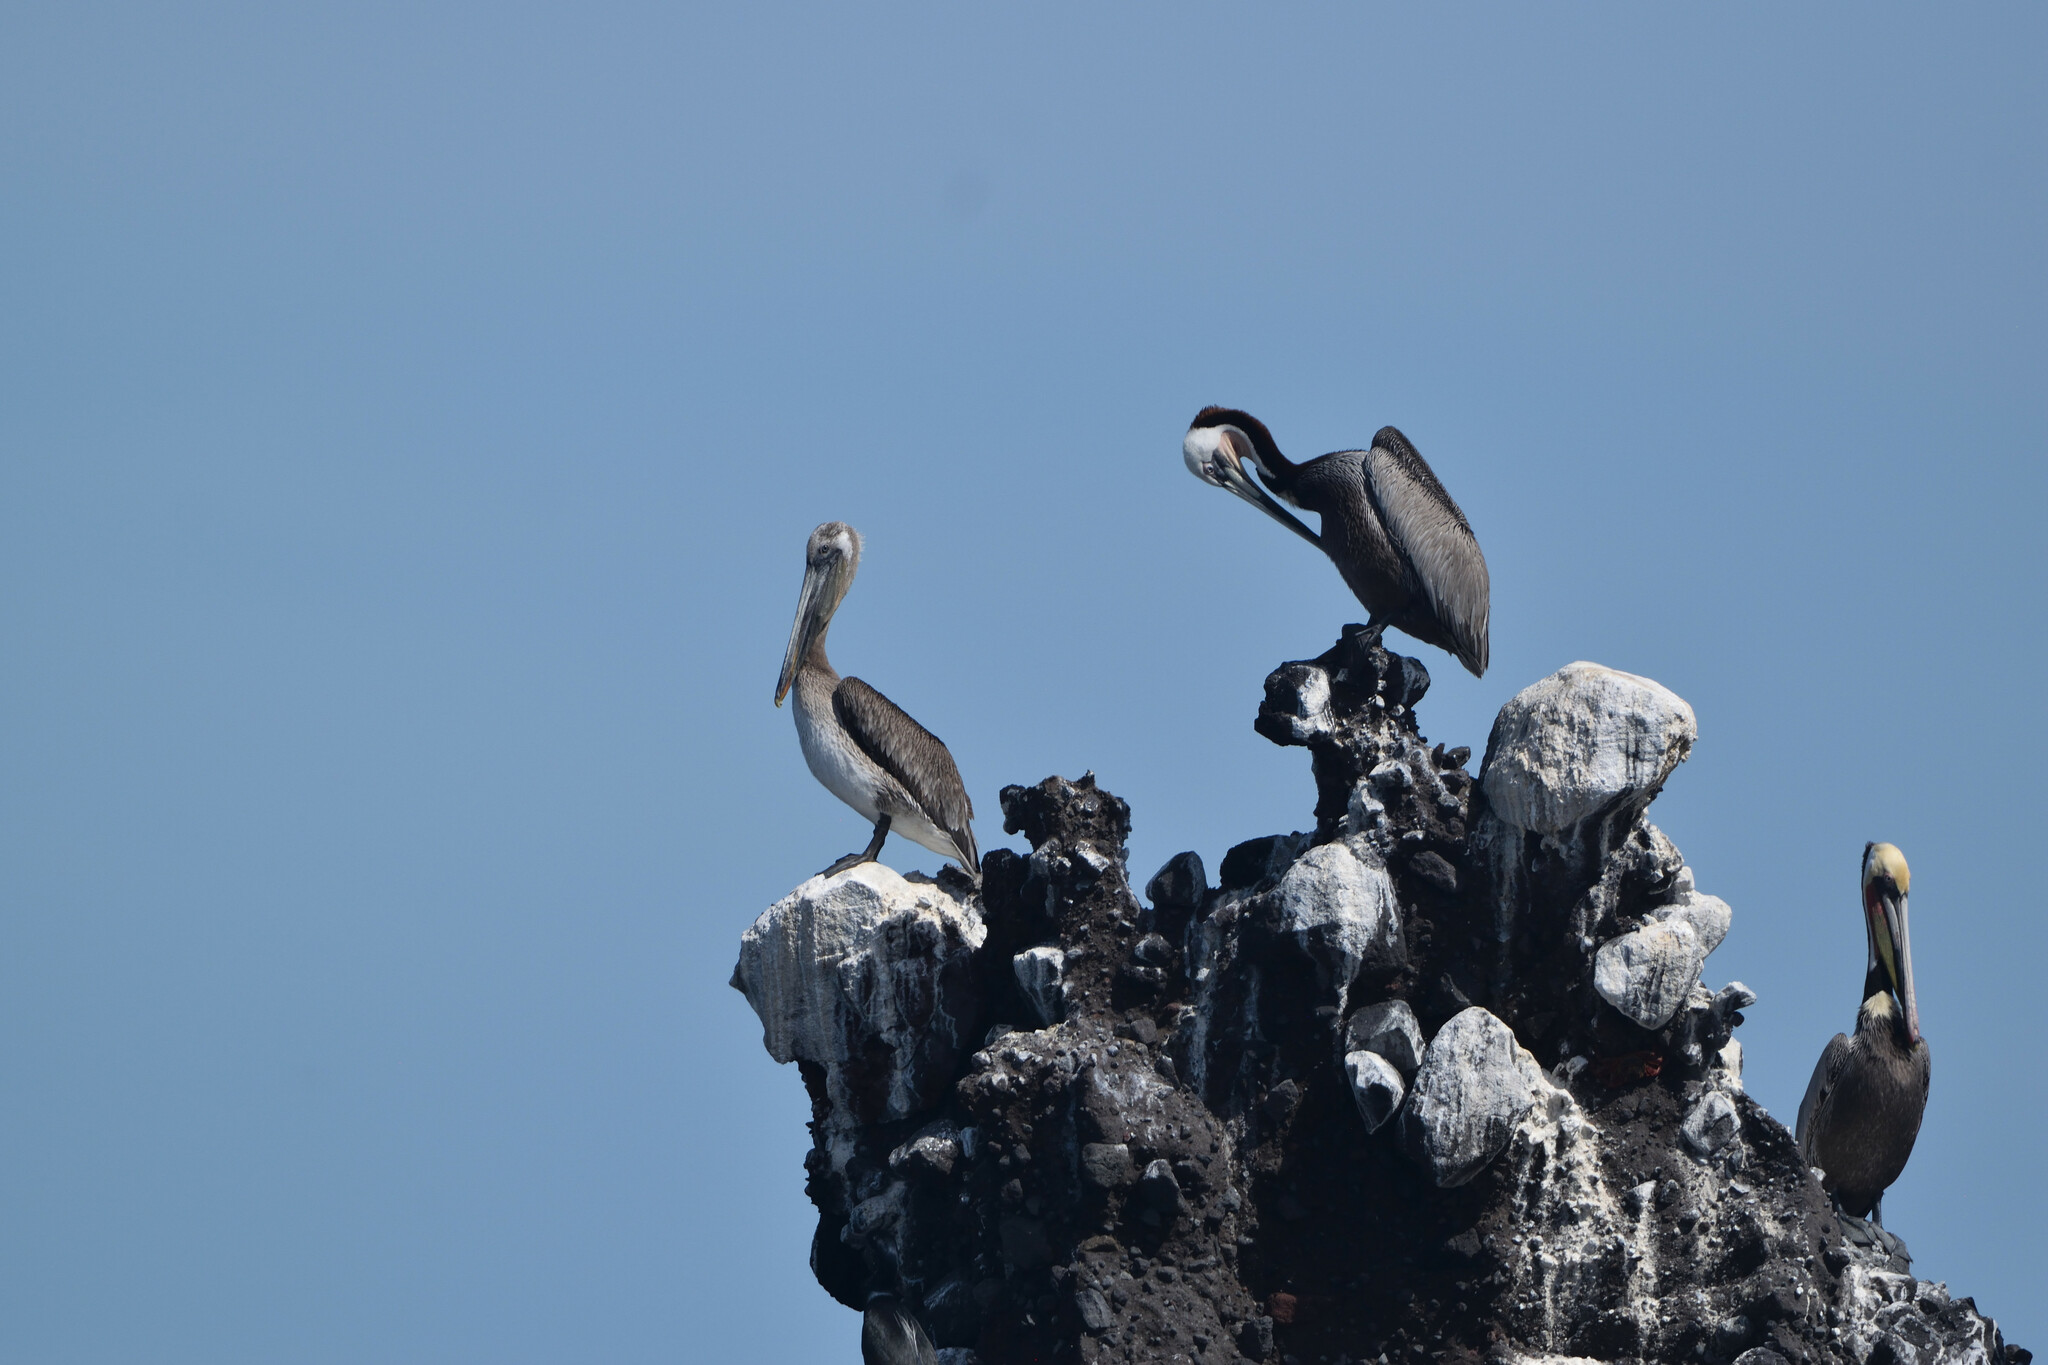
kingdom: Animalia
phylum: Chordata
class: Aves
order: Pelecaniformes
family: Pelecanidae
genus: Pelecanus
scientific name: Pelecanus occidentalis
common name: Brown pelican
